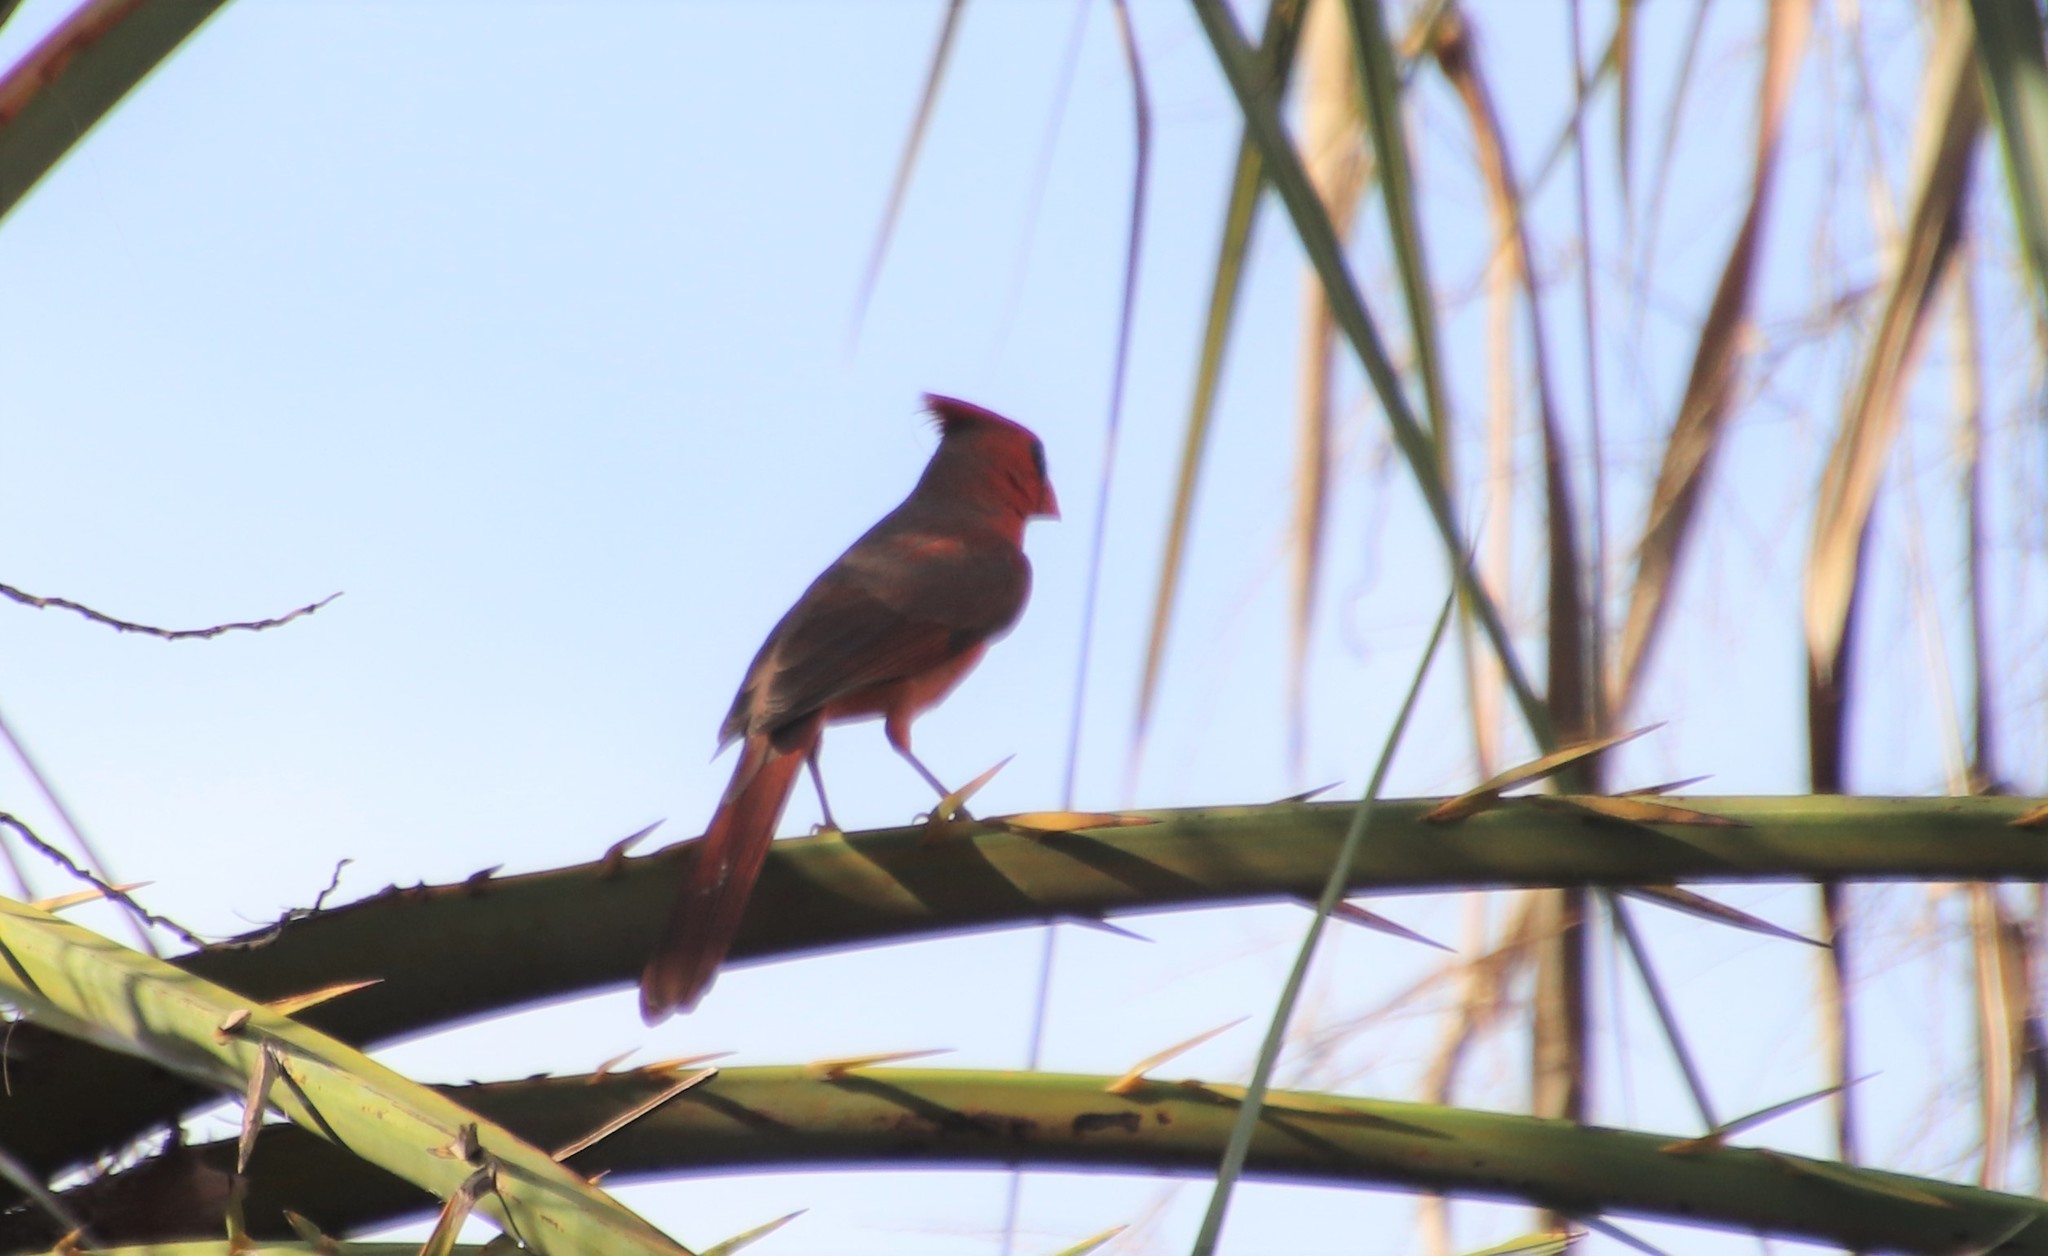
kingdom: Animalia
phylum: Chordata
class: Aves
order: Passeriformes
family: Cardinalidae
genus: Cardinalis
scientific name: Cardinalis cardinalis
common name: Northern cardinal
